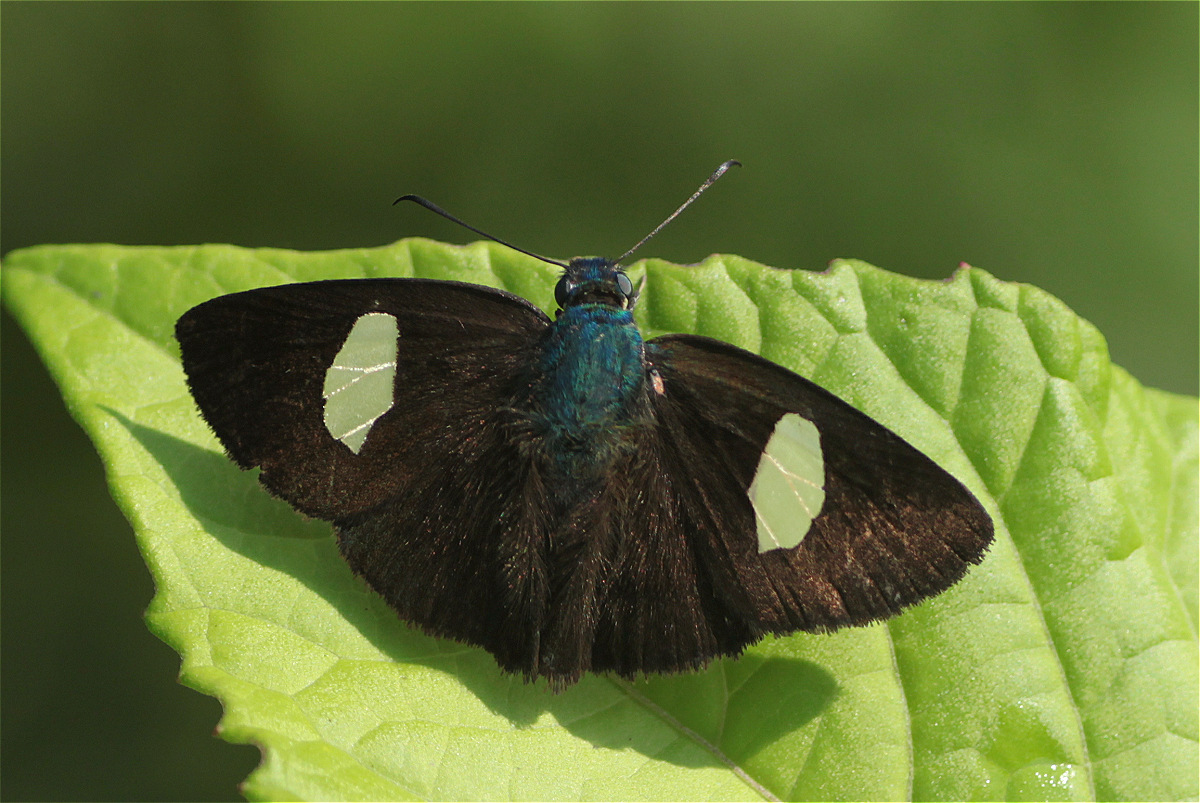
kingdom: Animalia
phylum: Arthropoda
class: Insecta
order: Lepidoptera
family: Hesperiidae
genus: Ectomis
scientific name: Ectomis cythna
